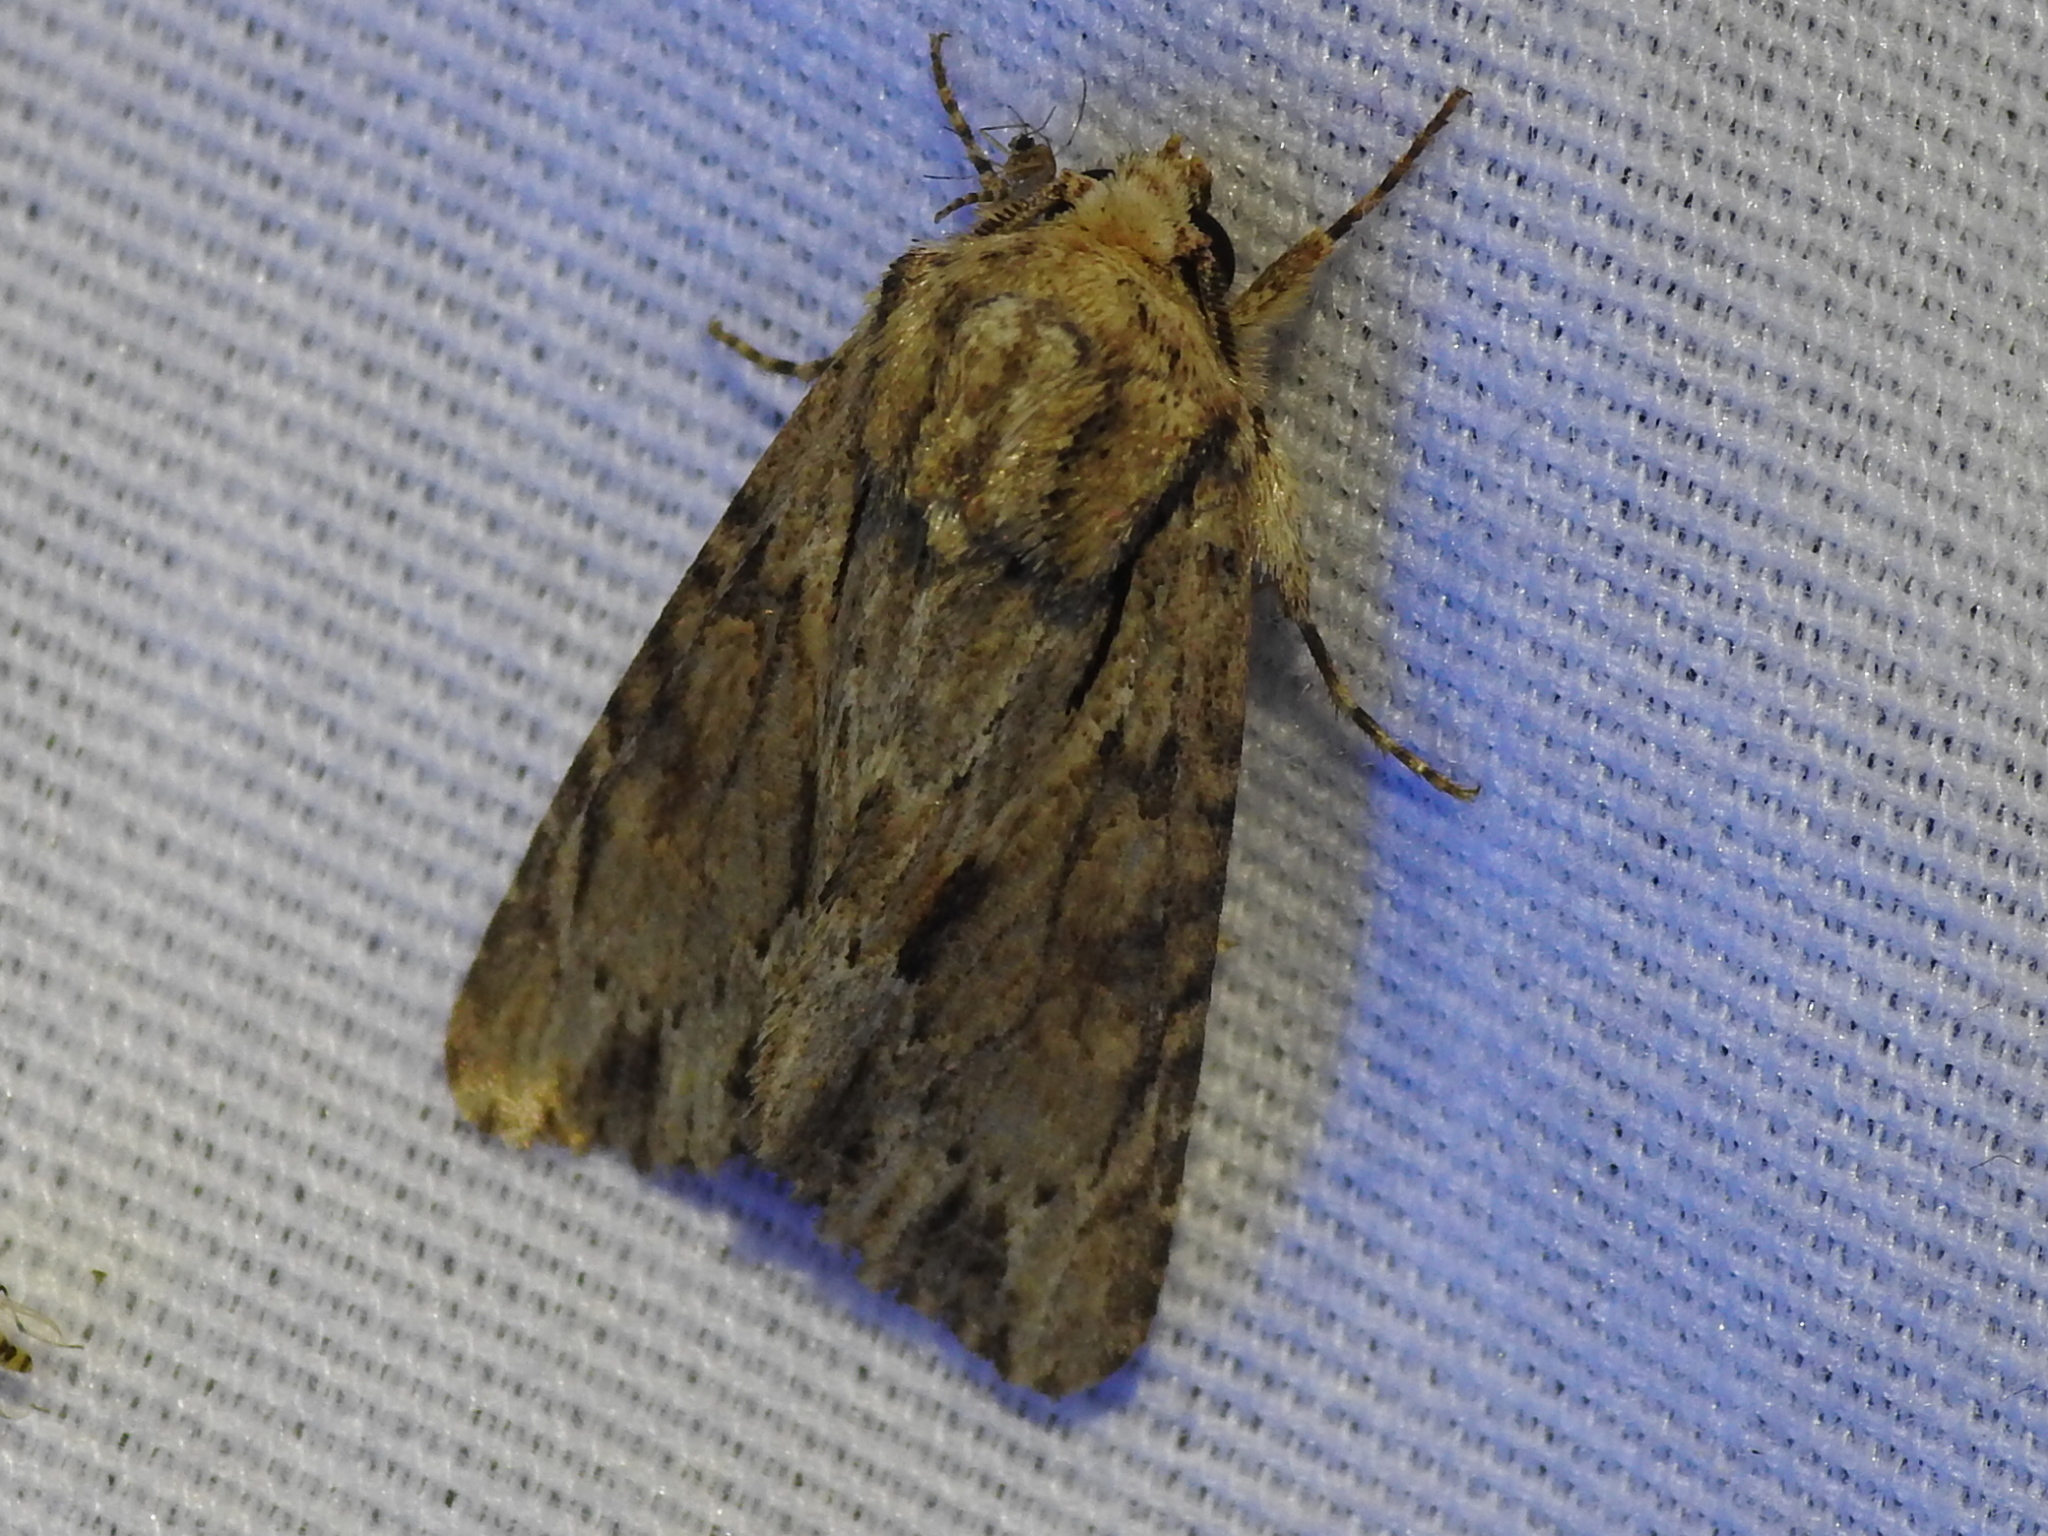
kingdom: Animalia
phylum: Arthropoda
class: Insecta
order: Lepidoptera
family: Noctuidae
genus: Achatia
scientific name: Achatia mucens
